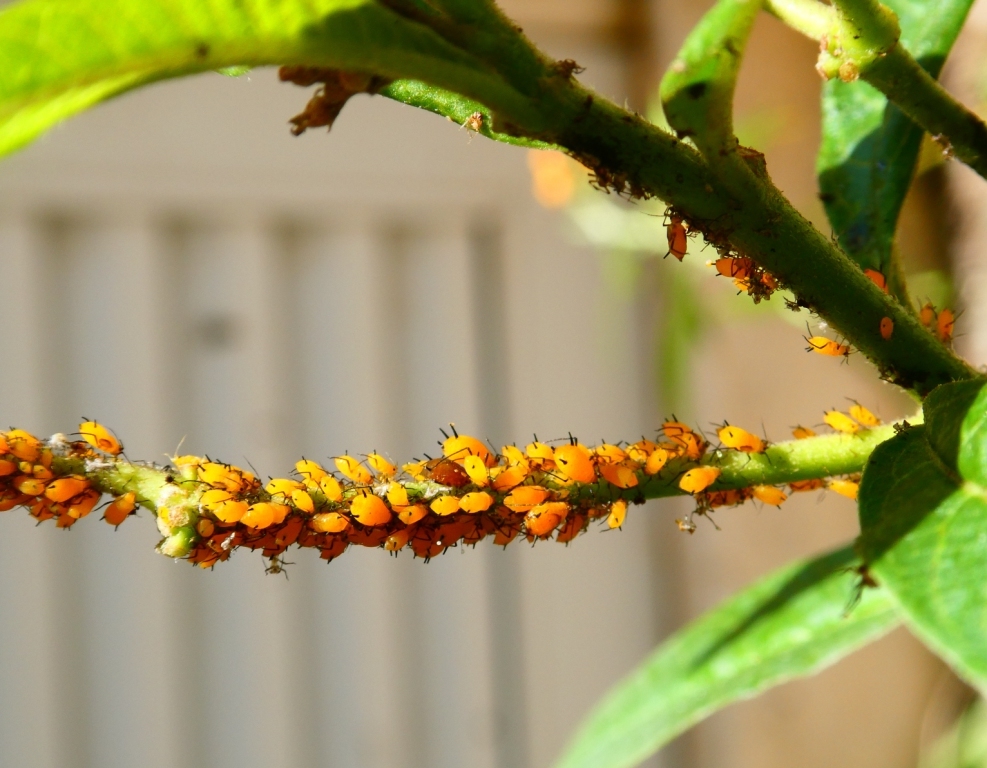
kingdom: Animalia
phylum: Arthropoda
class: Insecta
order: Hemiptera
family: Aphididae
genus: Aphis
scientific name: Aphis nerii
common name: Oleander aphid
